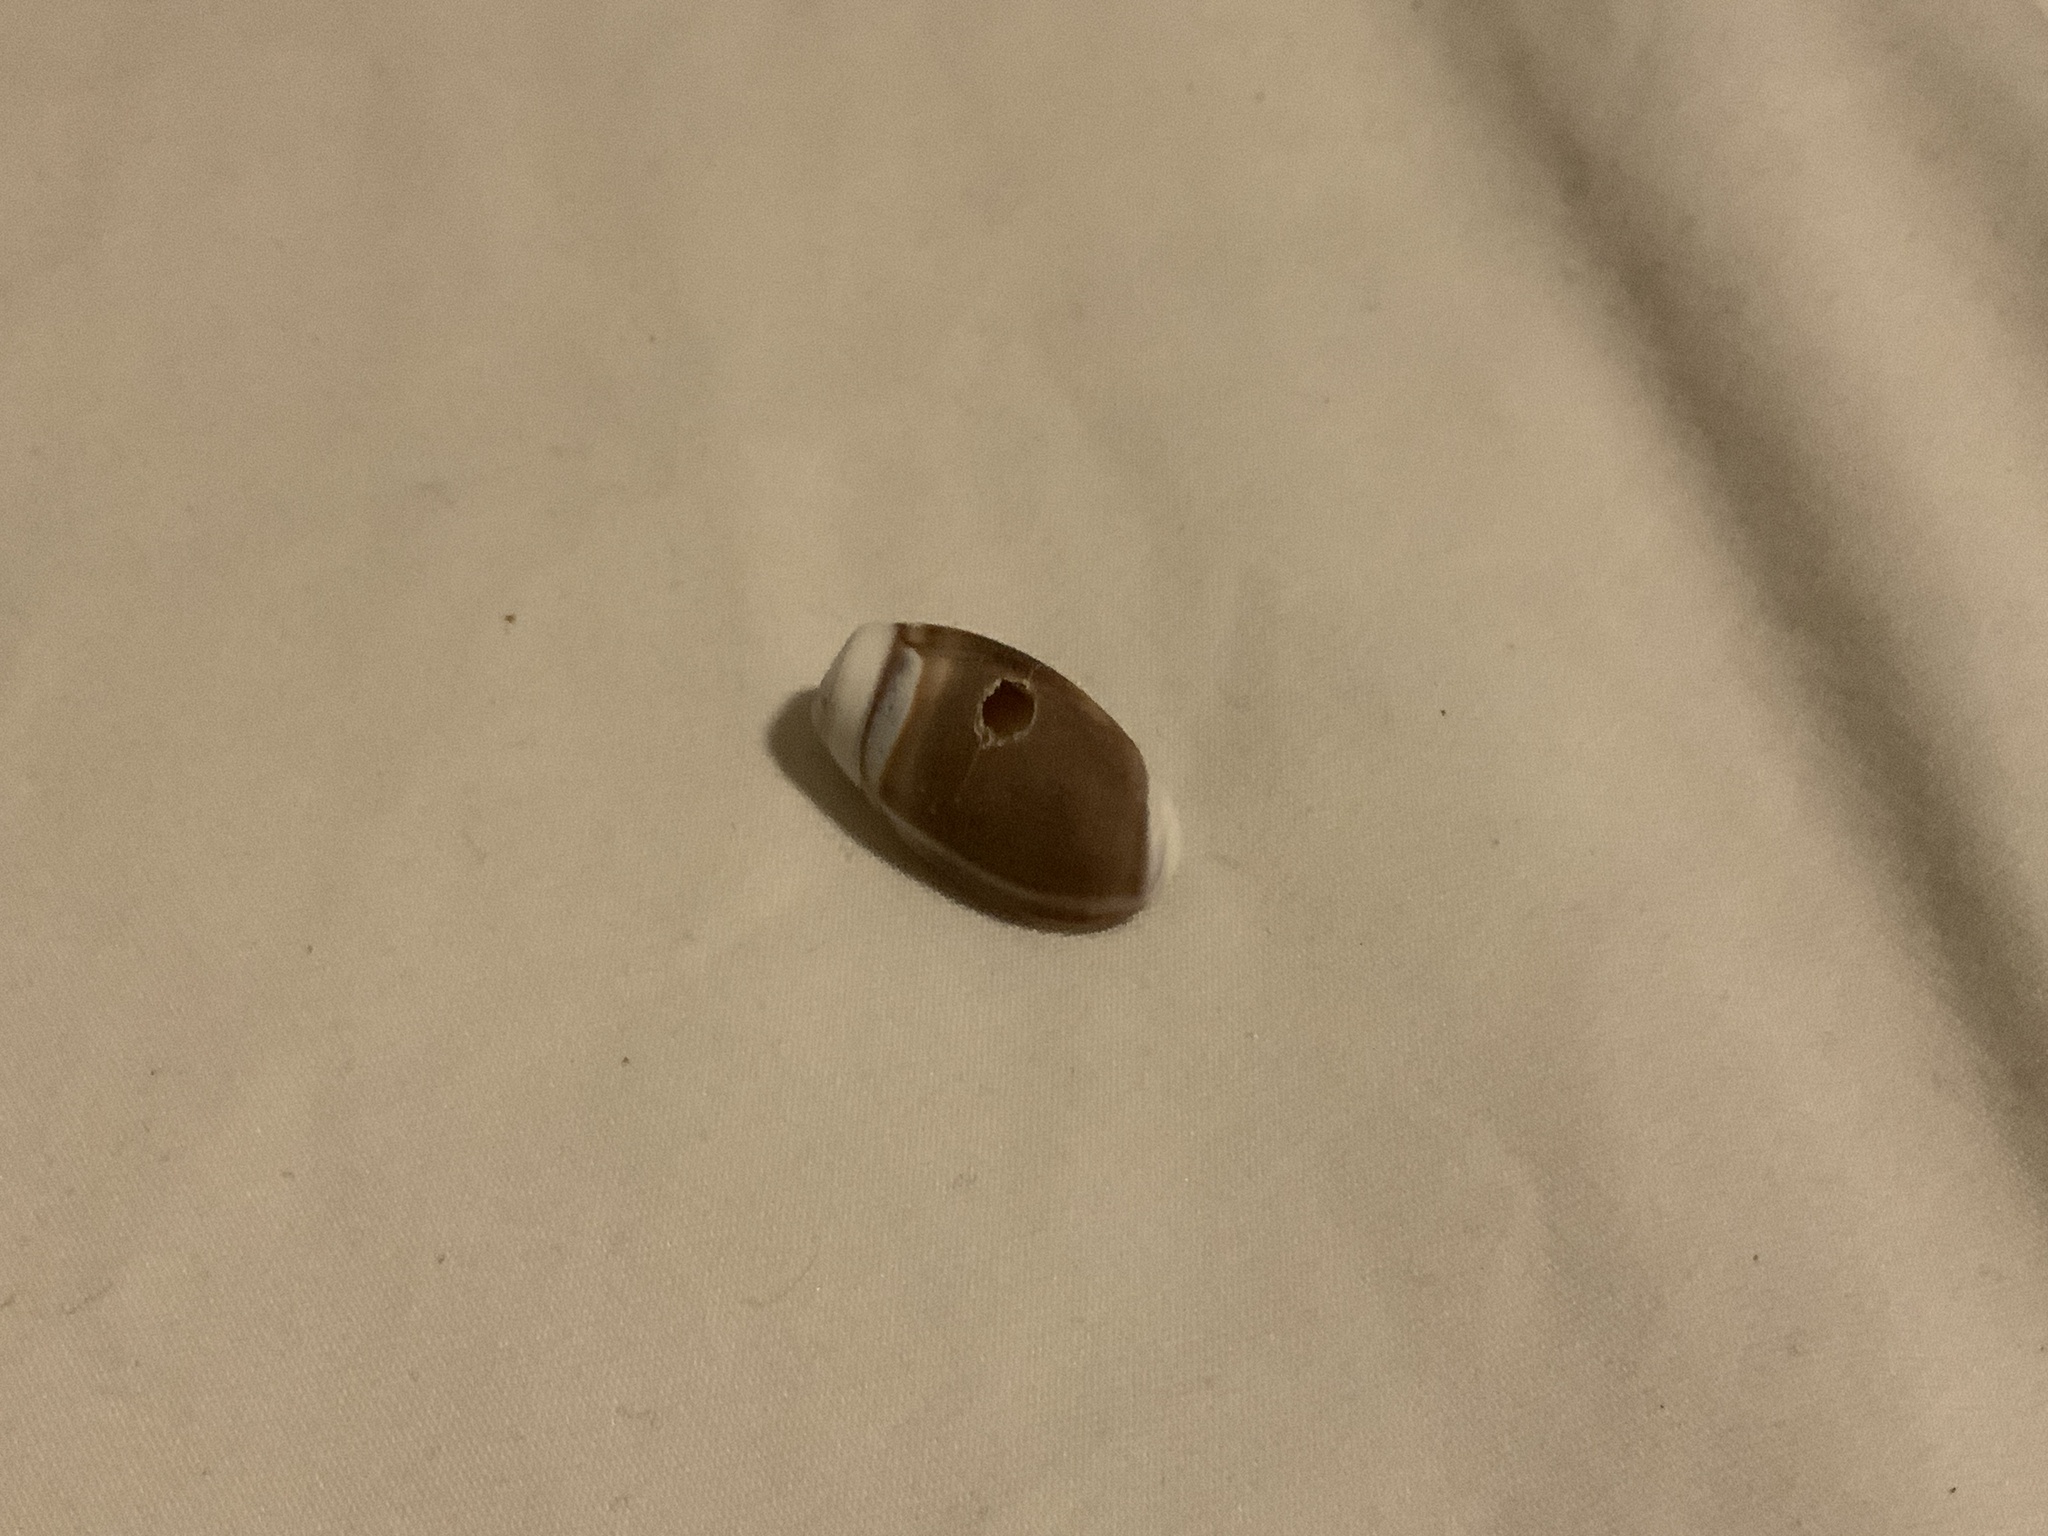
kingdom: Animalia
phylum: Mollusca
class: Gastropoda
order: Neogastropoda
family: Olividae
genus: Callianax
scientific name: Callianax biplicata
